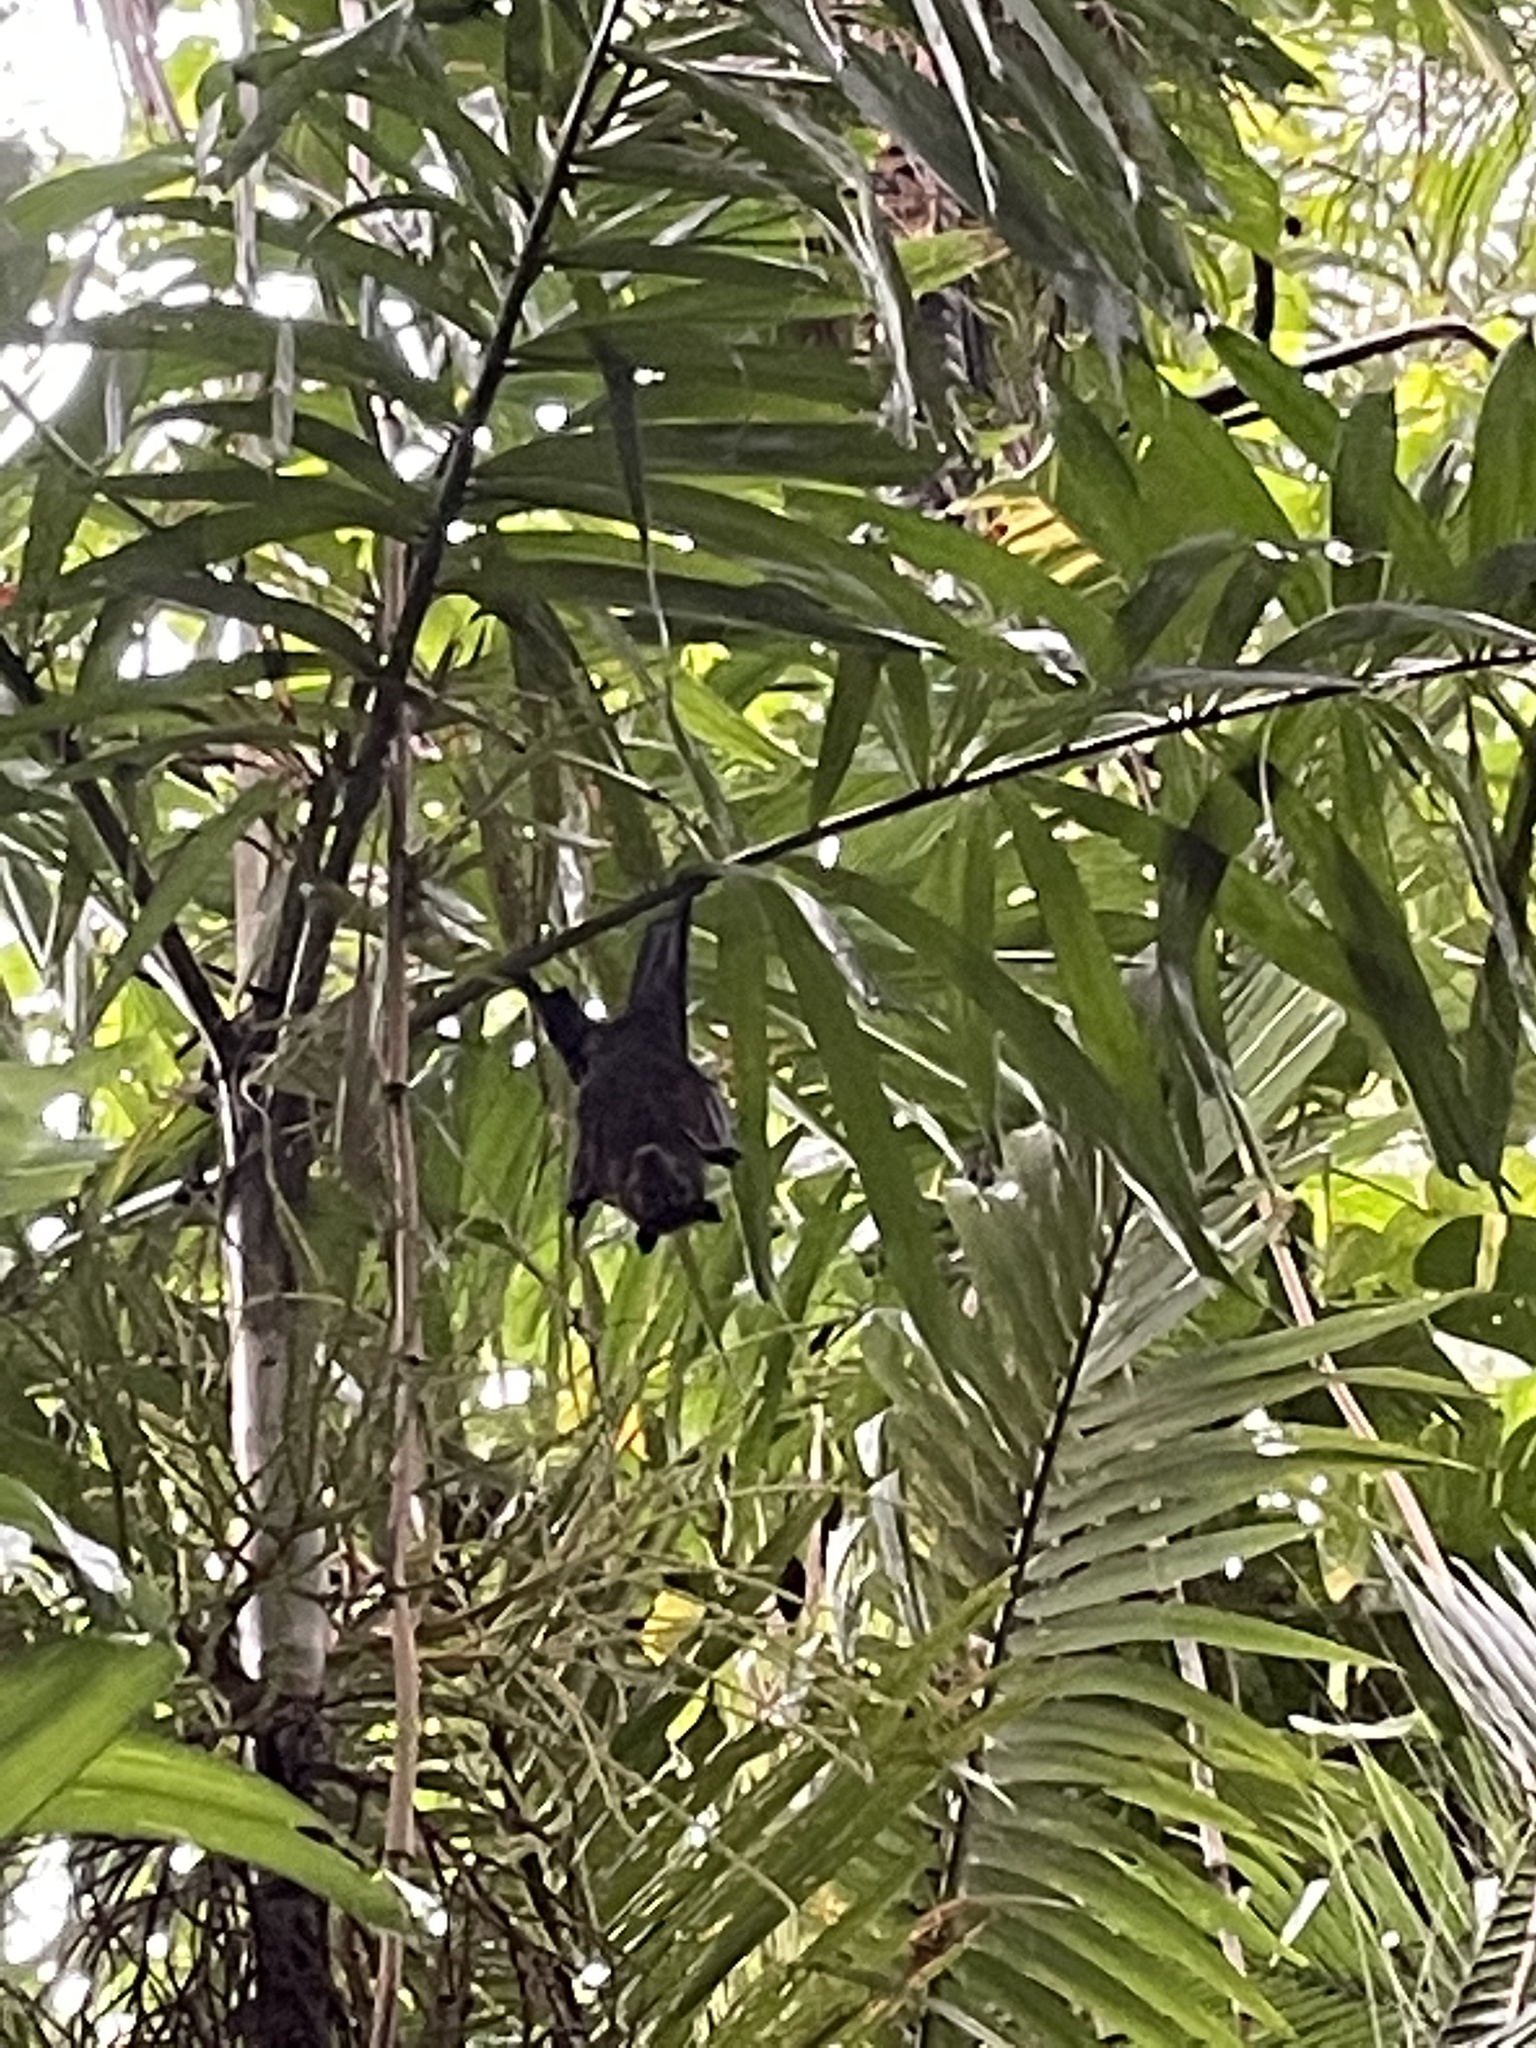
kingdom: Animalia
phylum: Chordata
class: Mammalia
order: Chiroptera
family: Pteropodidae
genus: Pteropus
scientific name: Pteropus conspicillatus
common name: Spectacled flying fox
